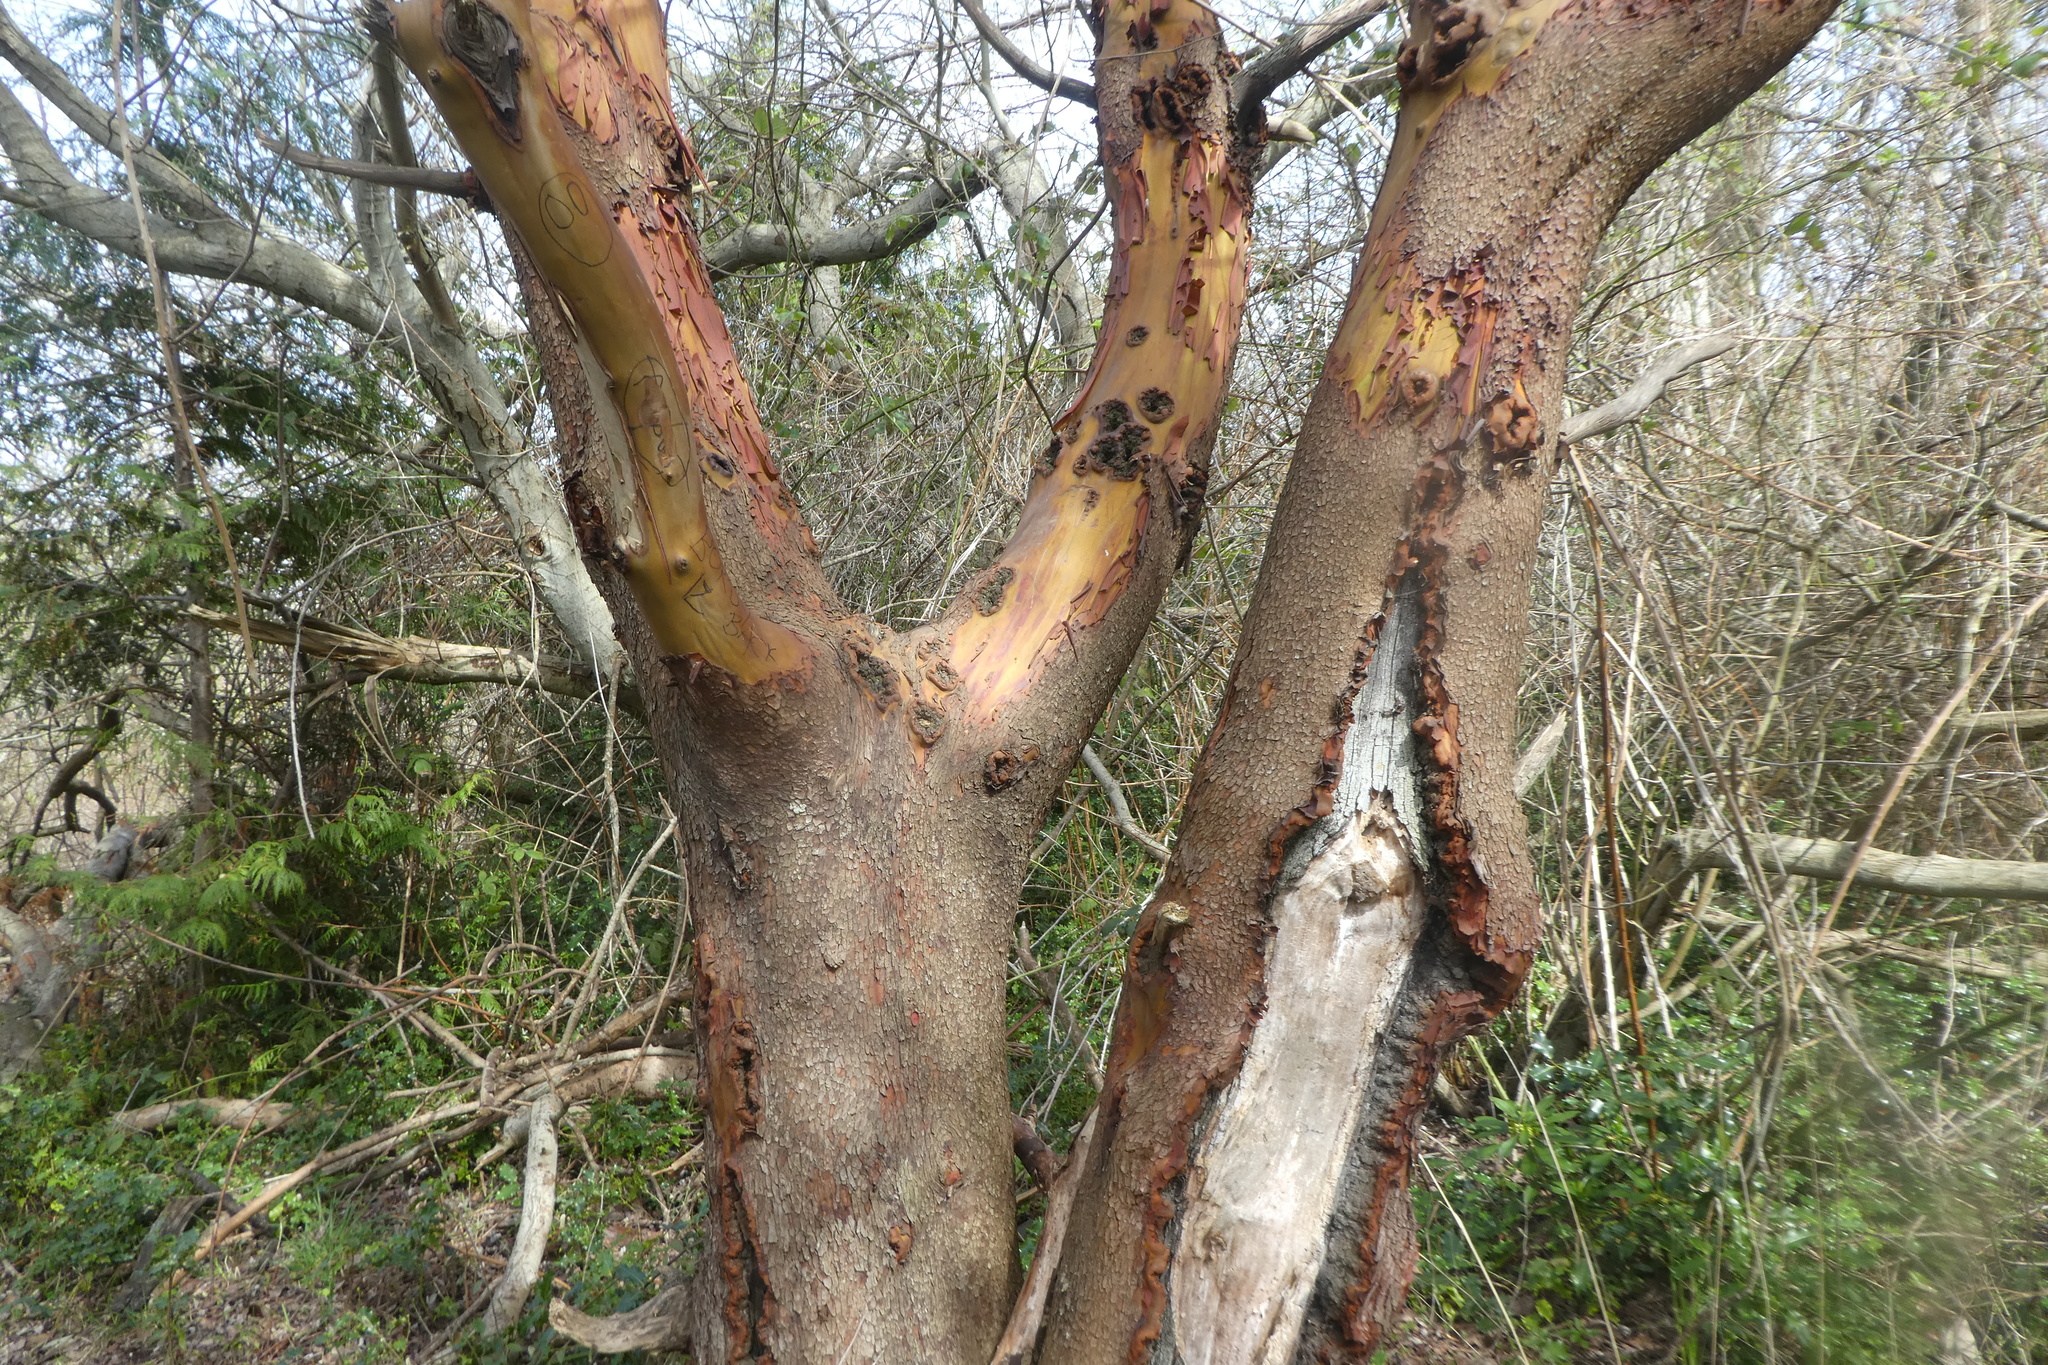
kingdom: Plantae
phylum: Tracheophyta
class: Magnoliopsida
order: Ericales
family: Ericaceae
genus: Arbutus
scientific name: Arbutus menziesii
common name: Pacific madrone
